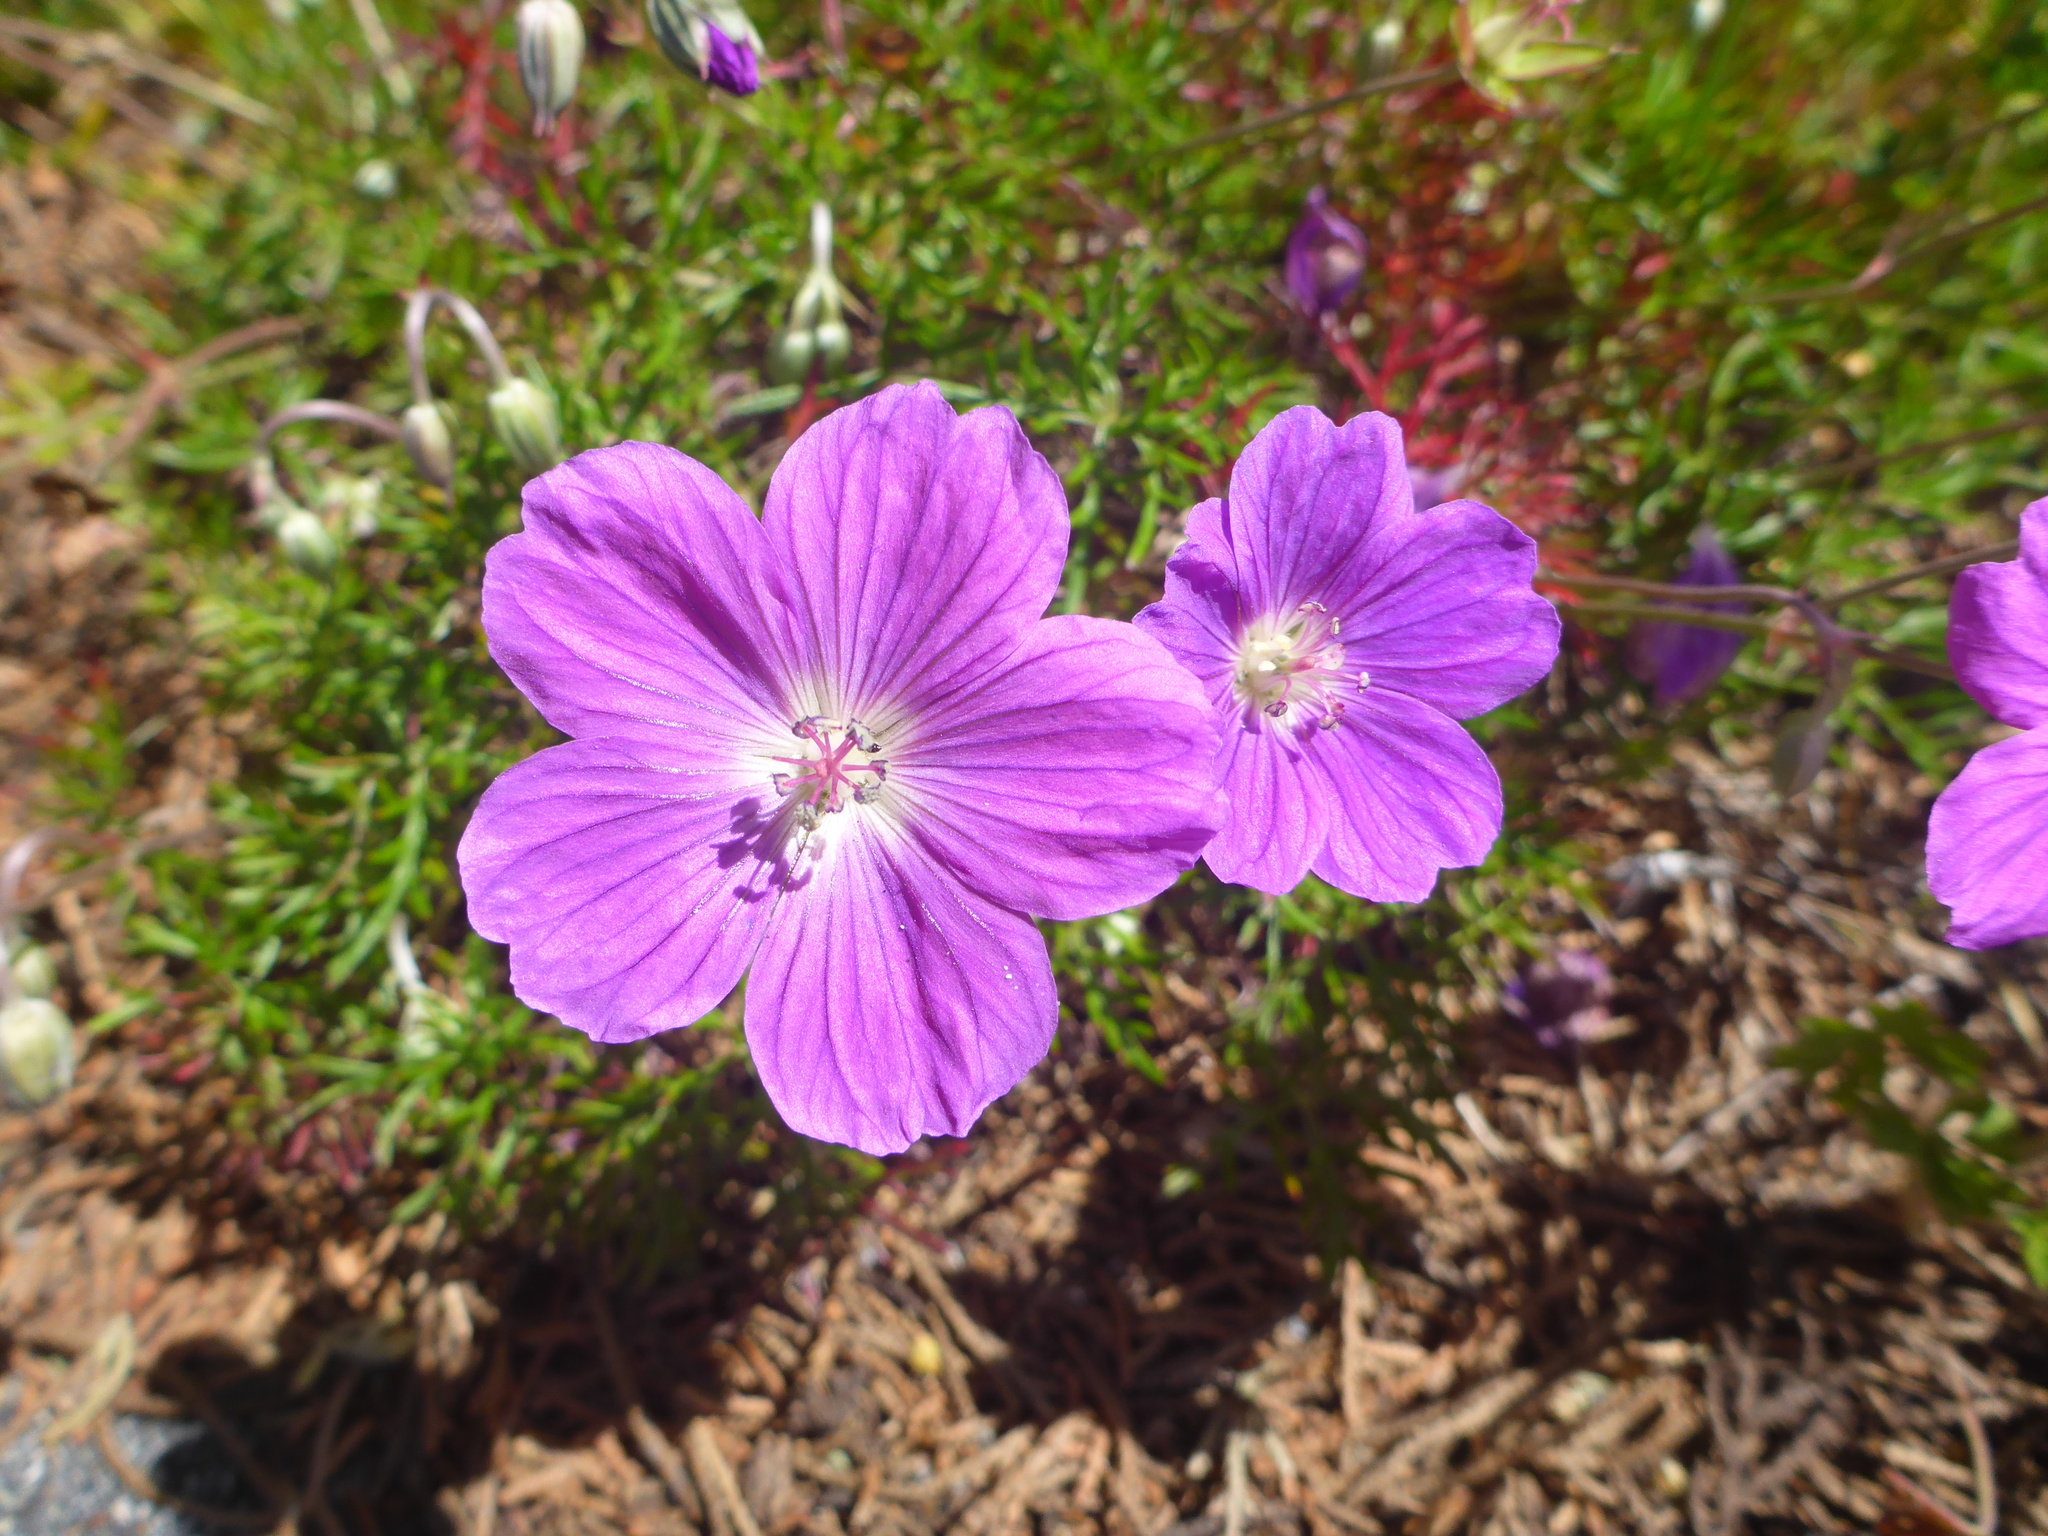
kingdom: Plantae
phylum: Tracheophyta
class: Magnoliopsida
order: Geraniales
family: Geraniaceae
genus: Geranium
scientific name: Geranium incanum
